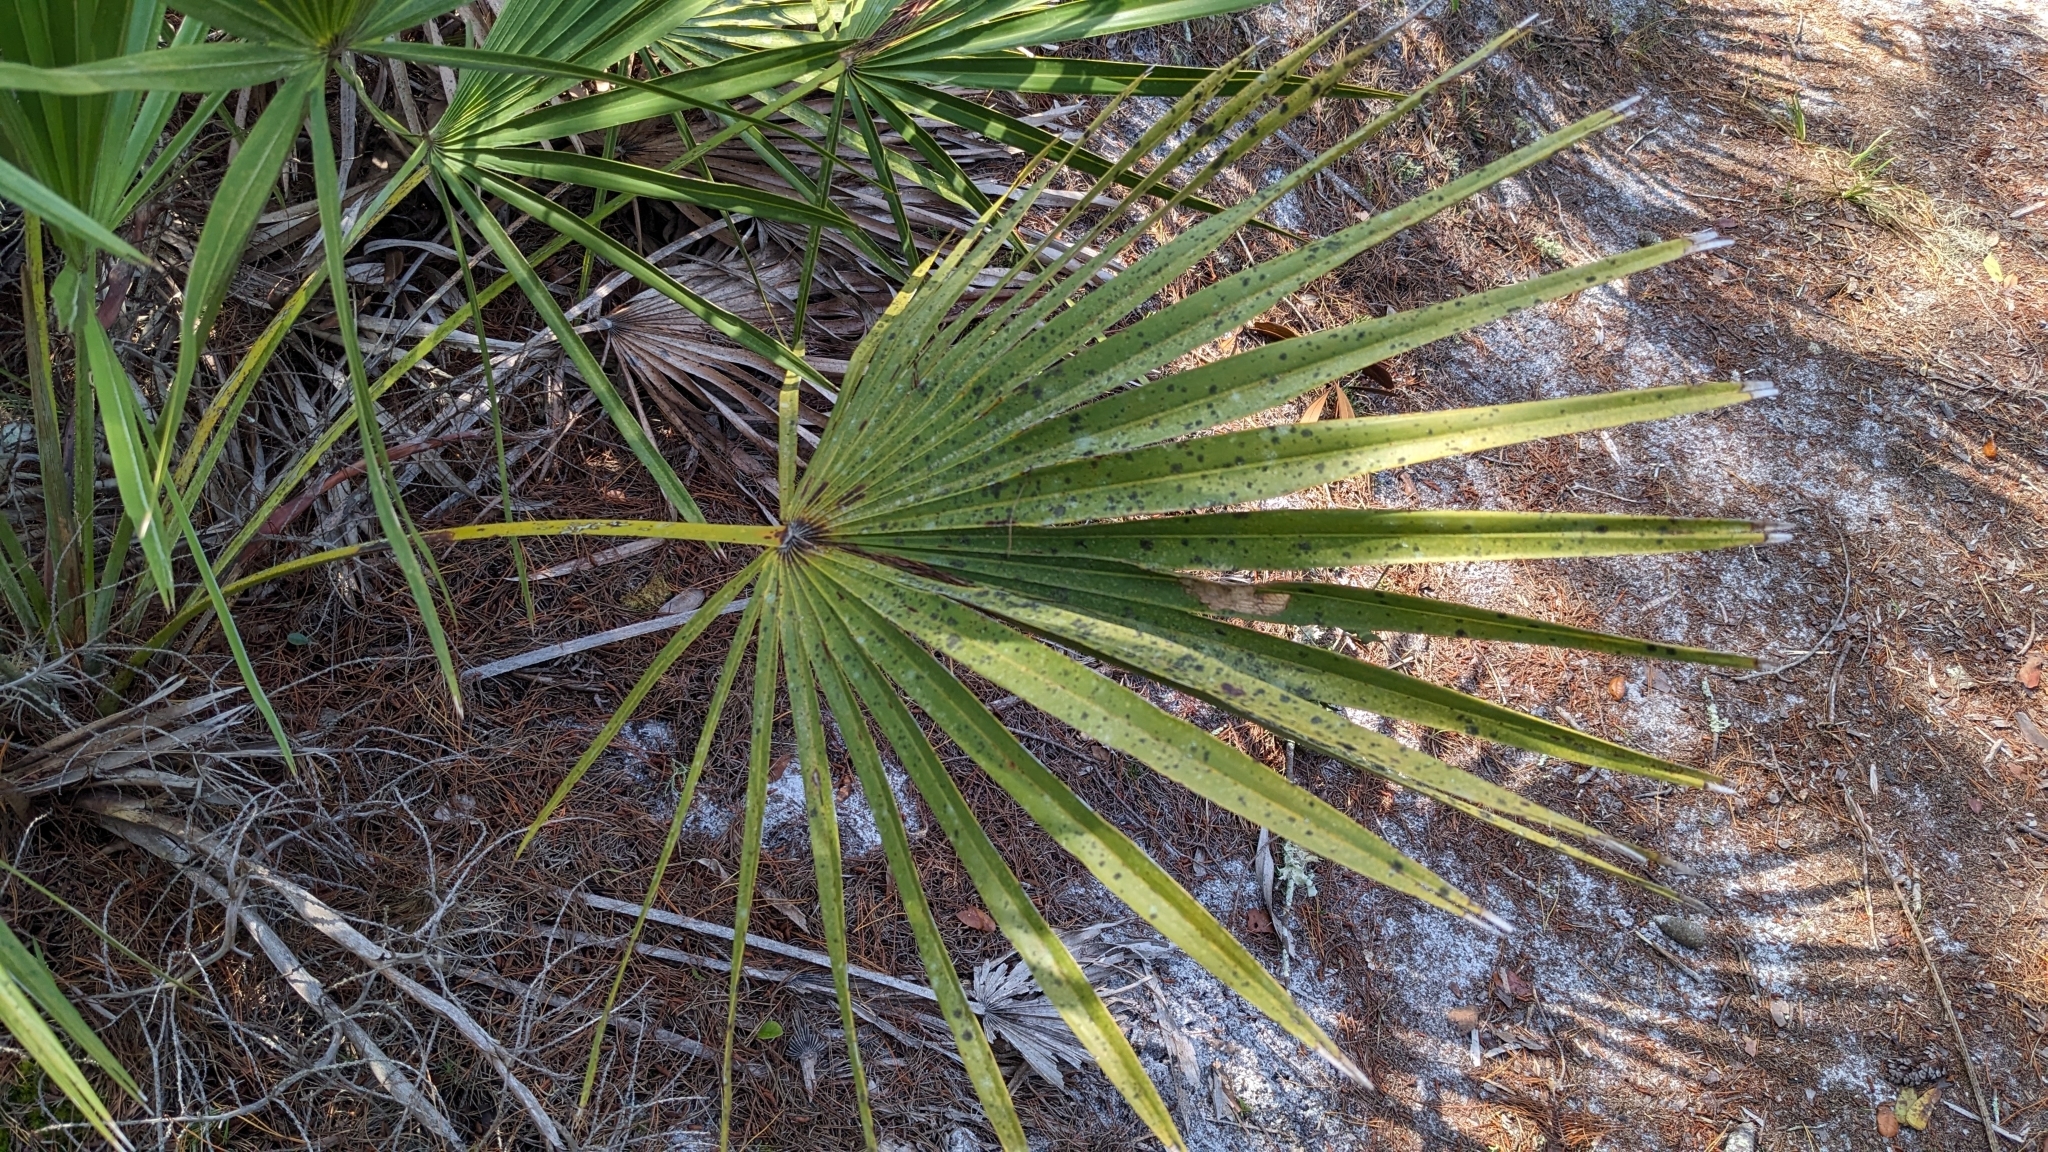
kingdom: Plantae
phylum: Tracheophyta
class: Liliopsida
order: Arecales
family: Arecaceae
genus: Serenoa
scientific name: Serenoa repens
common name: Saw-palmetto
